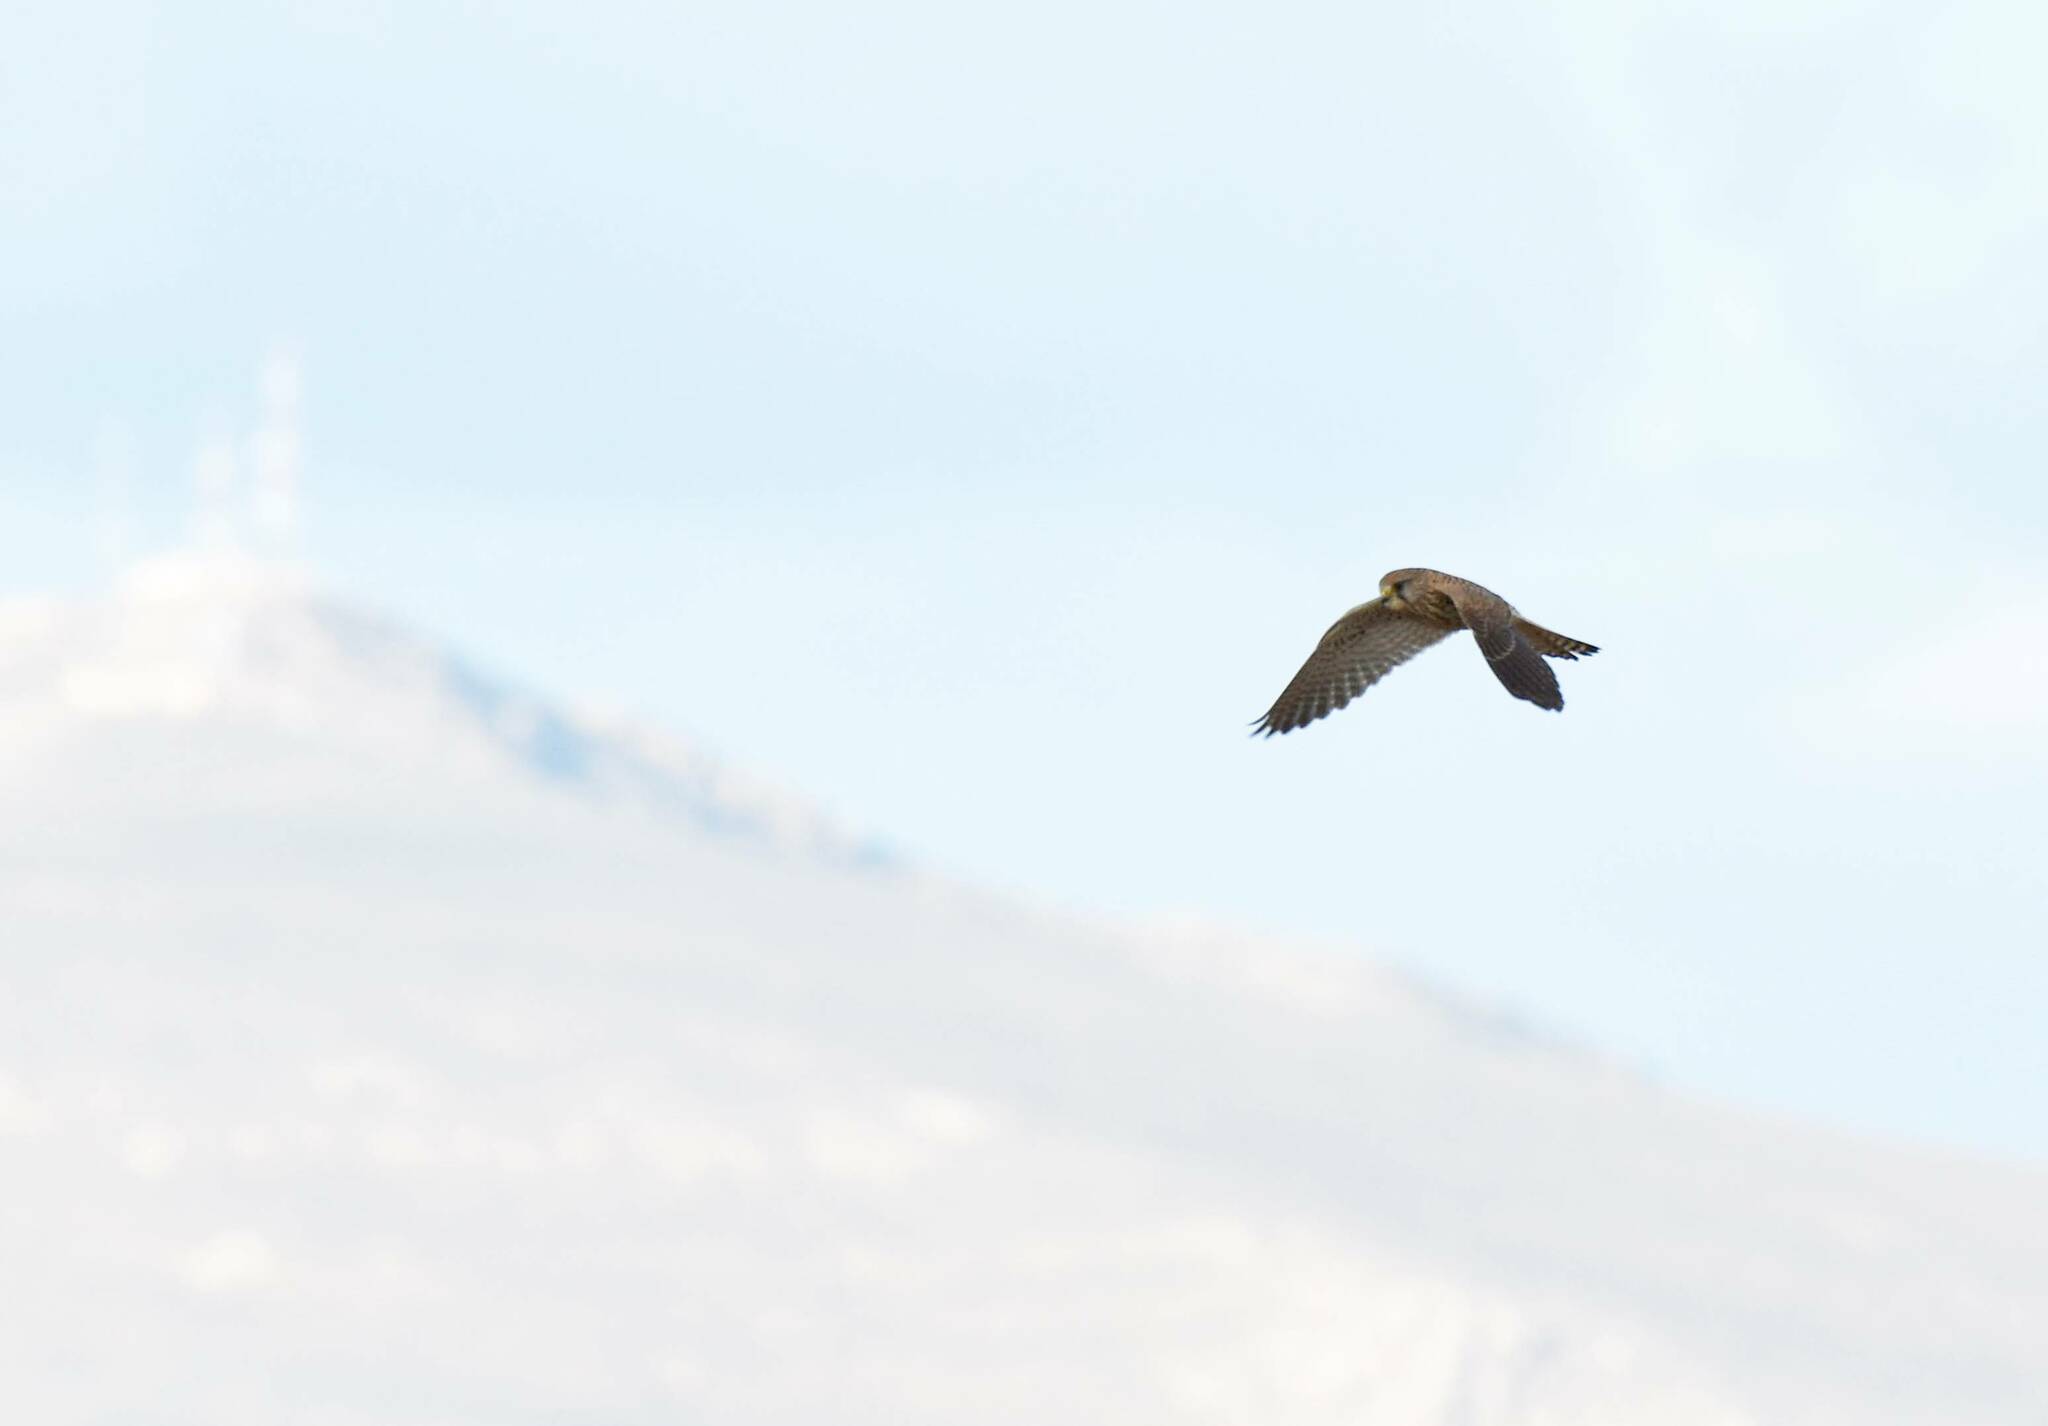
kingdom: Animalia
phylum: Chordata
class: Aves
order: Falconiformes
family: Falconidae
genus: Falco
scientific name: Falco tinnunculus
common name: Common kestrel
